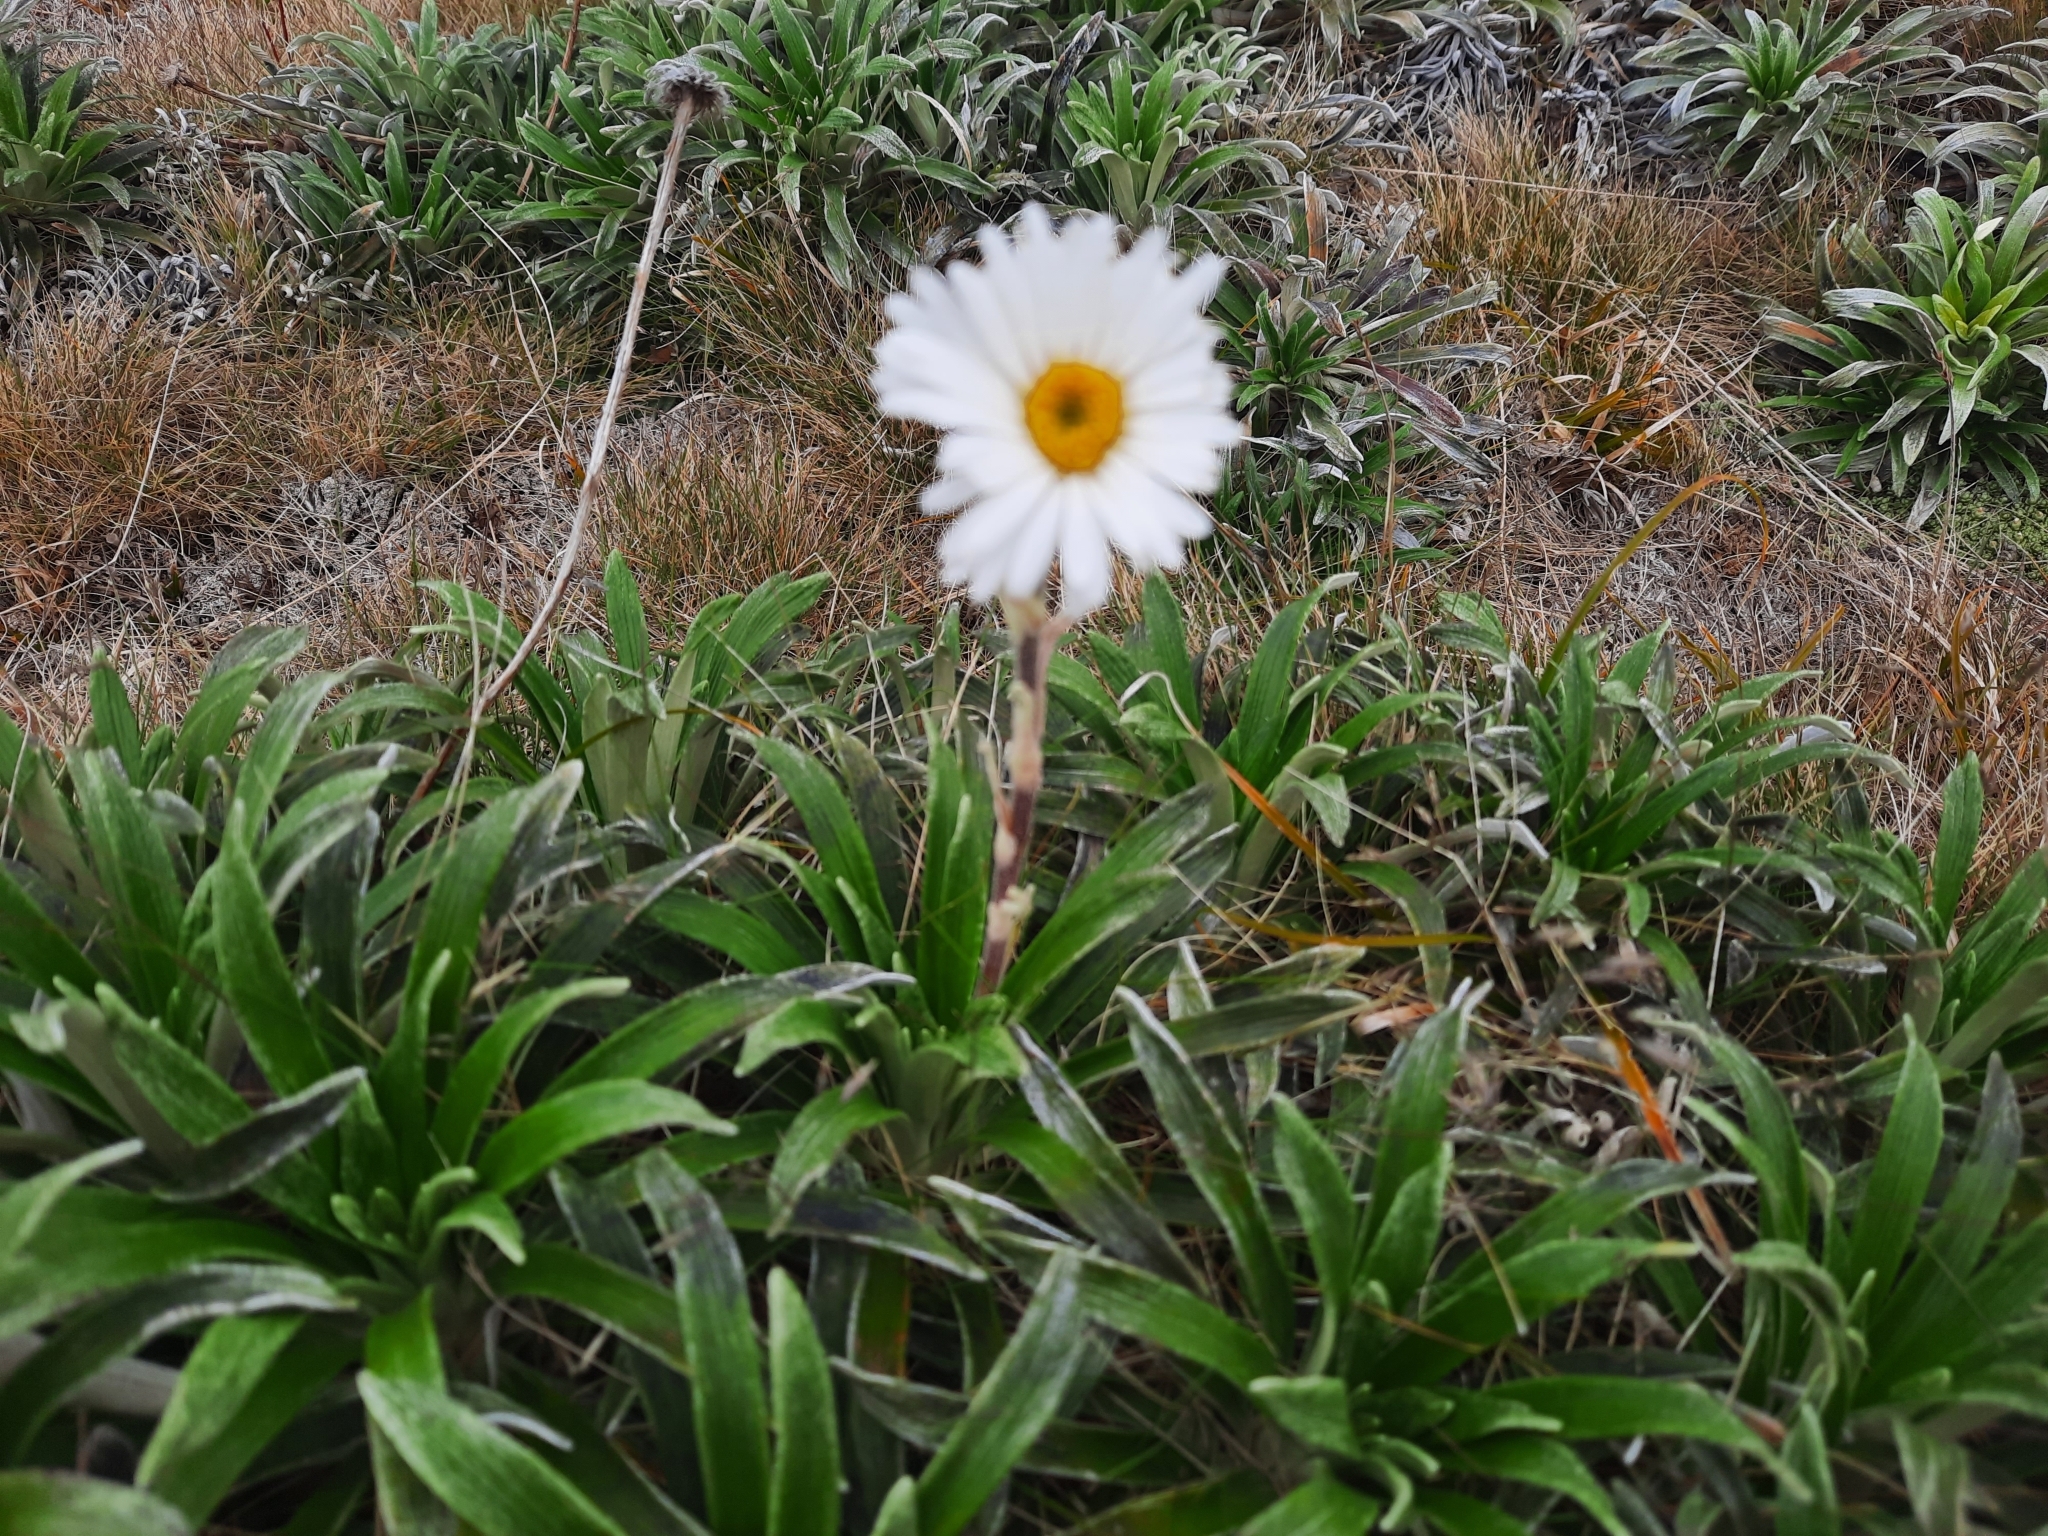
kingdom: Plantae
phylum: Tracheophyta
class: Magnoliopsida
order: Asterales
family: Asteraceae
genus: Celmisia
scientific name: Celmisia viscosa
